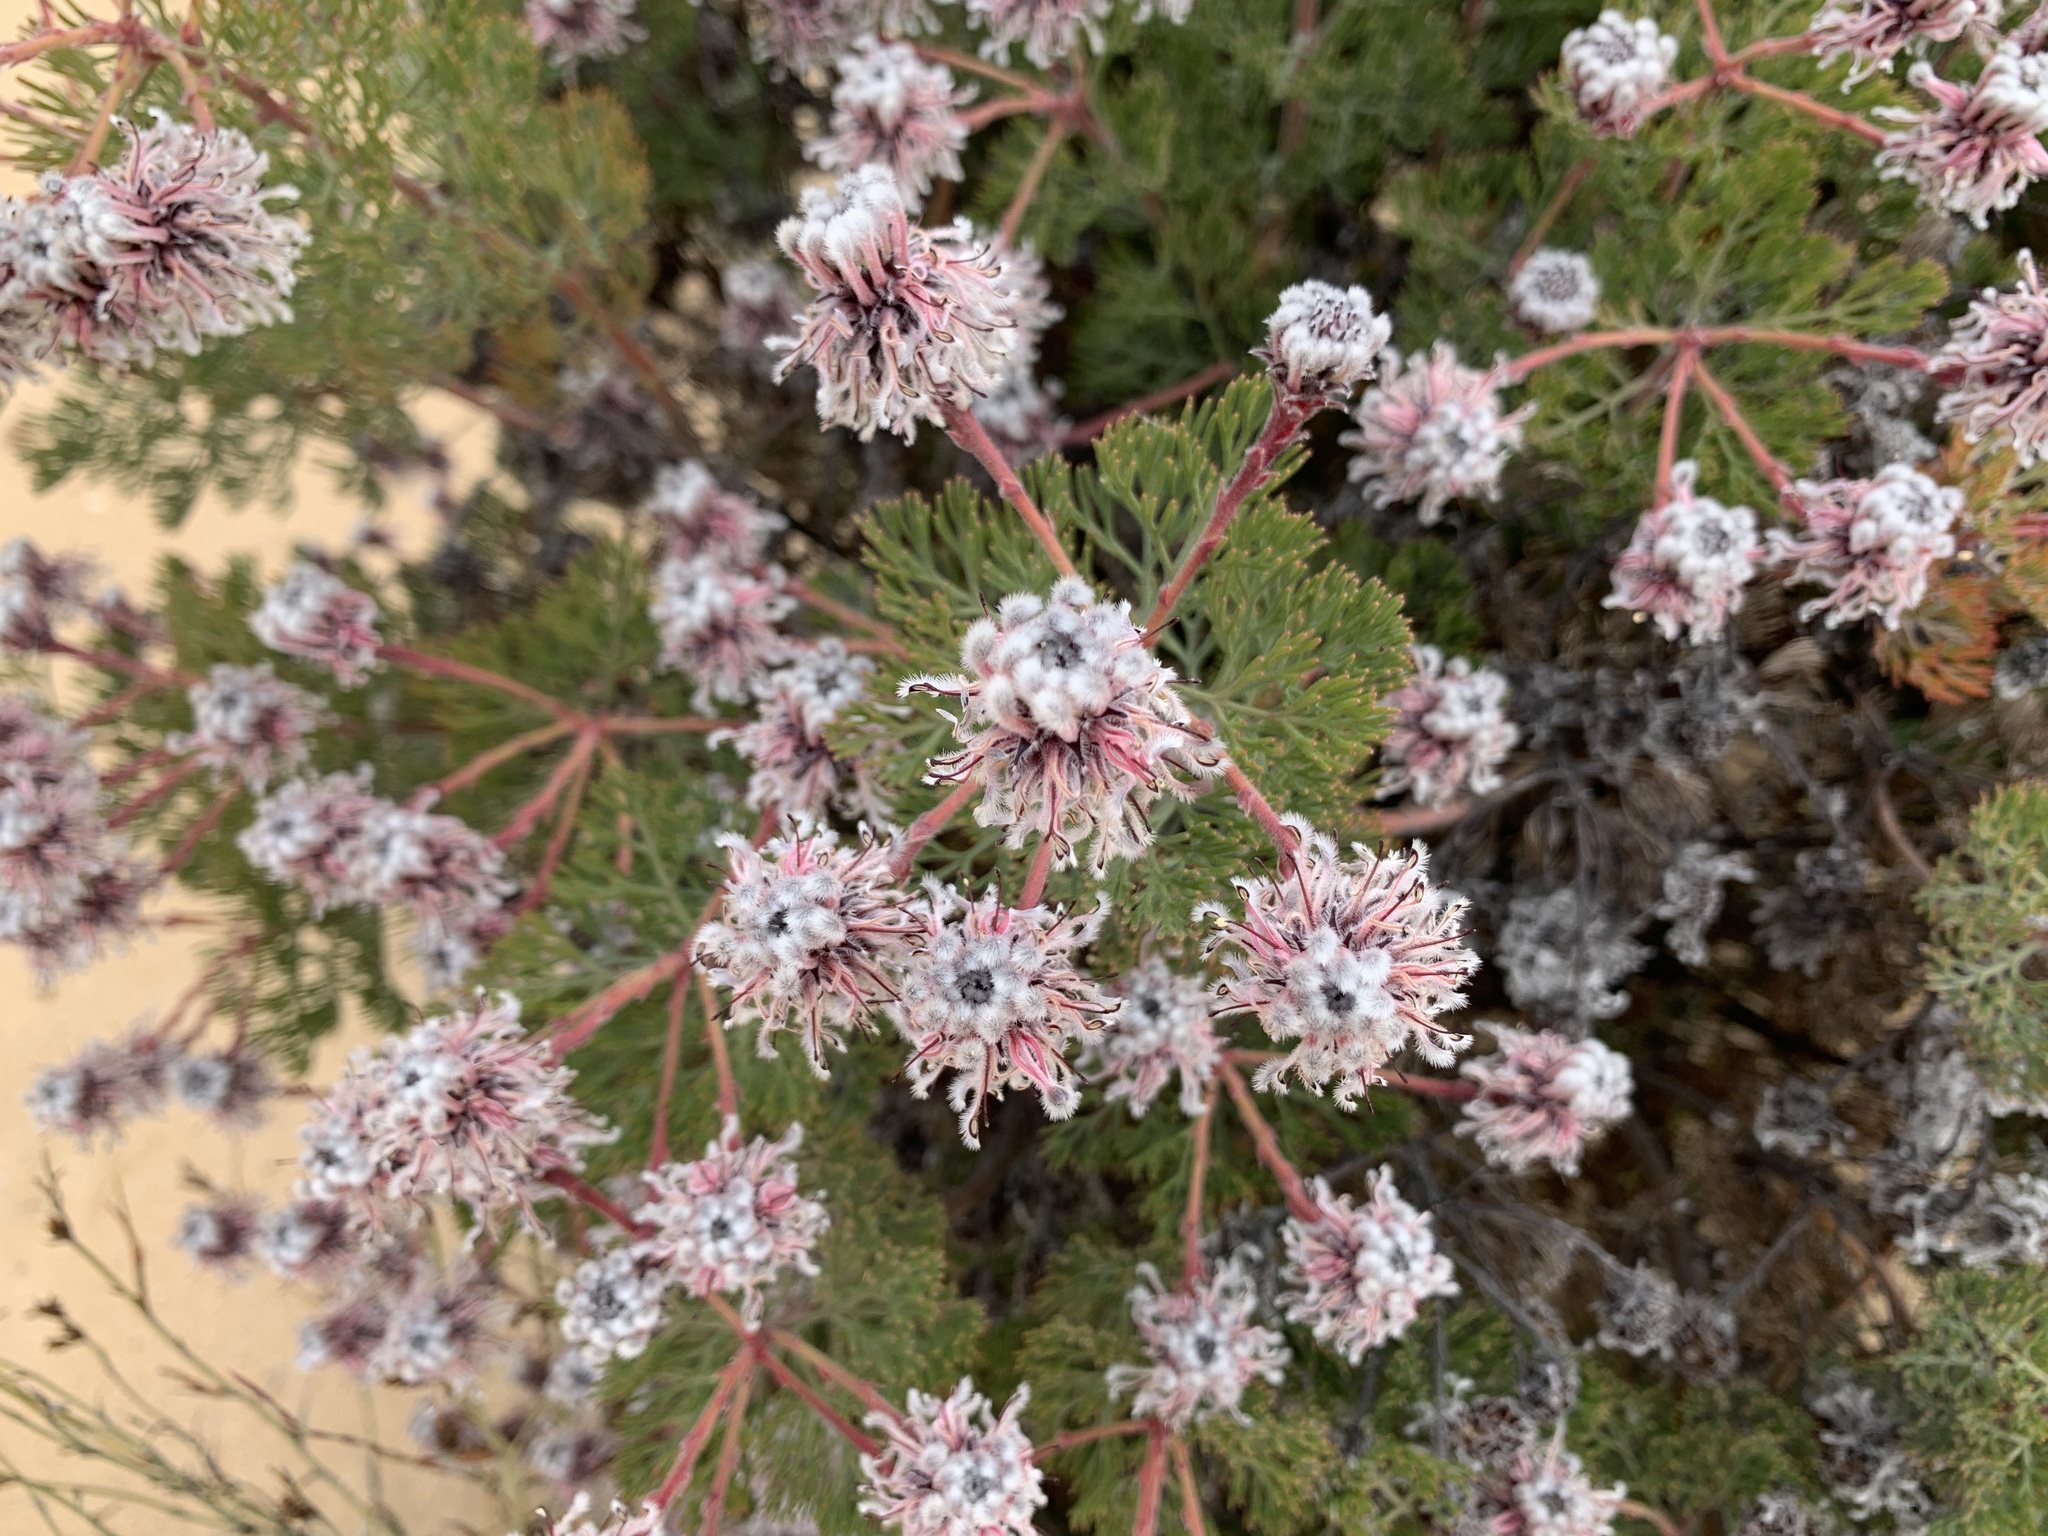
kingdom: Plantae
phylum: Tracheophyta
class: Magnoliopsida
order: Proteales
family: Proteaceae
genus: Serruria
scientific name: Serruria aitonii
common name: Marshmallow spiderhead
